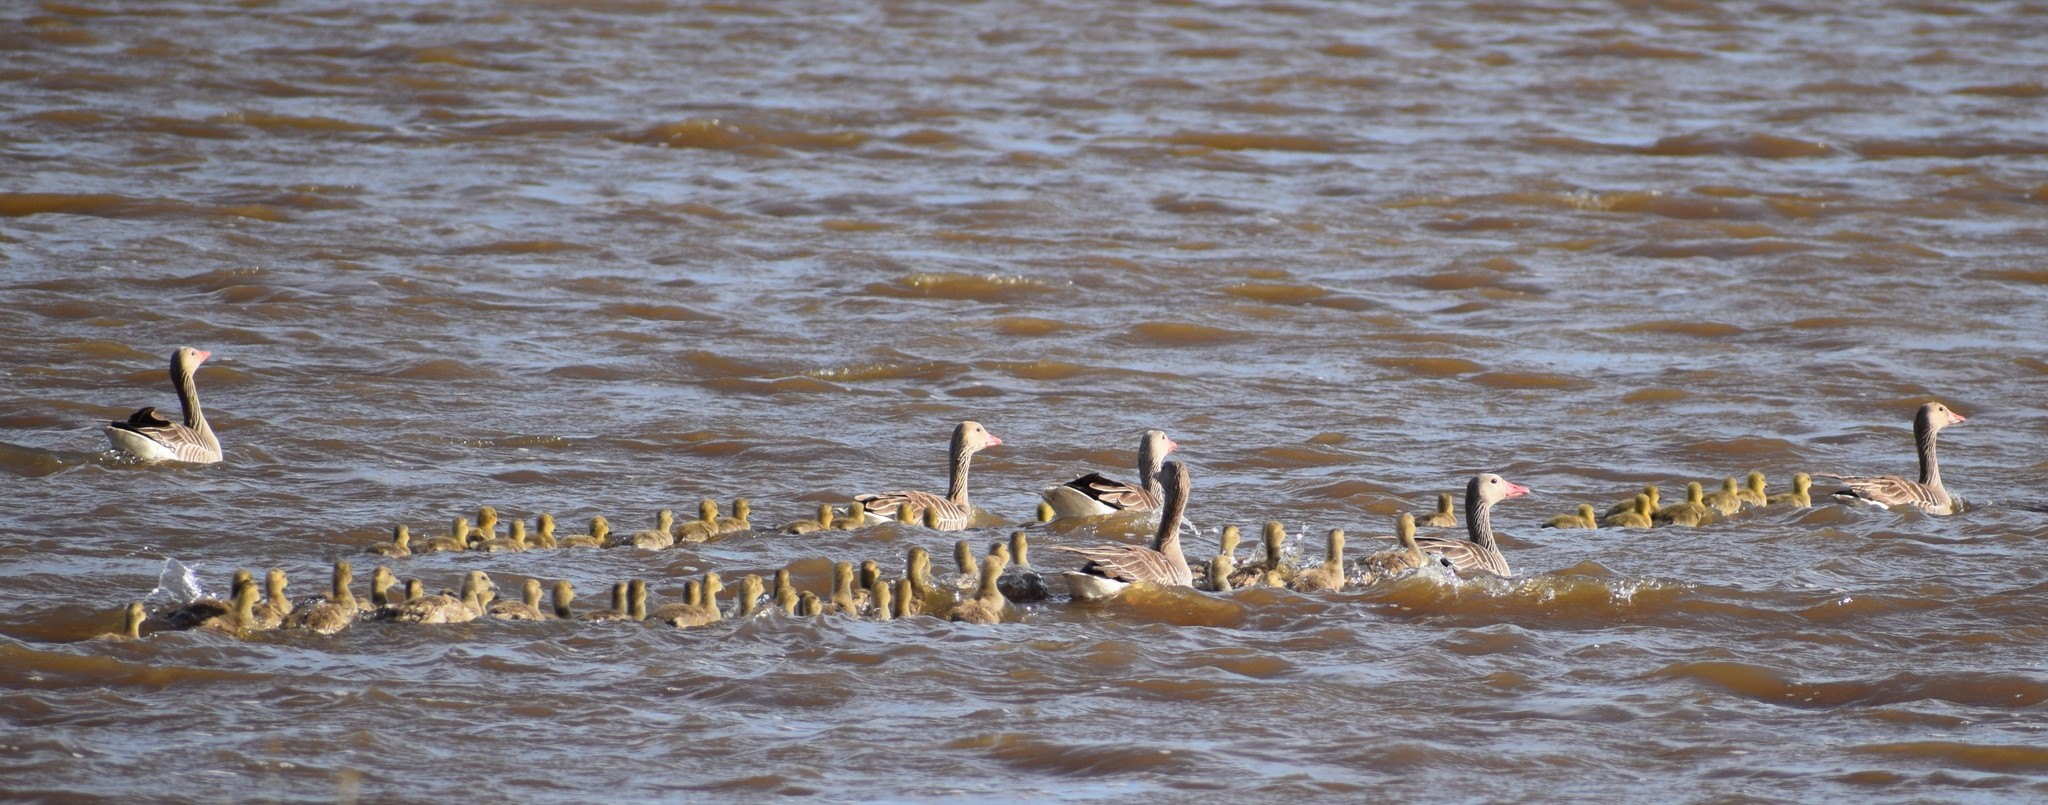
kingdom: Animalia
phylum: Chordata
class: Aves
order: Anseriformes
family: Anatidae
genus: Anser
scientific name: Anser anser
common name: Greylag goose
